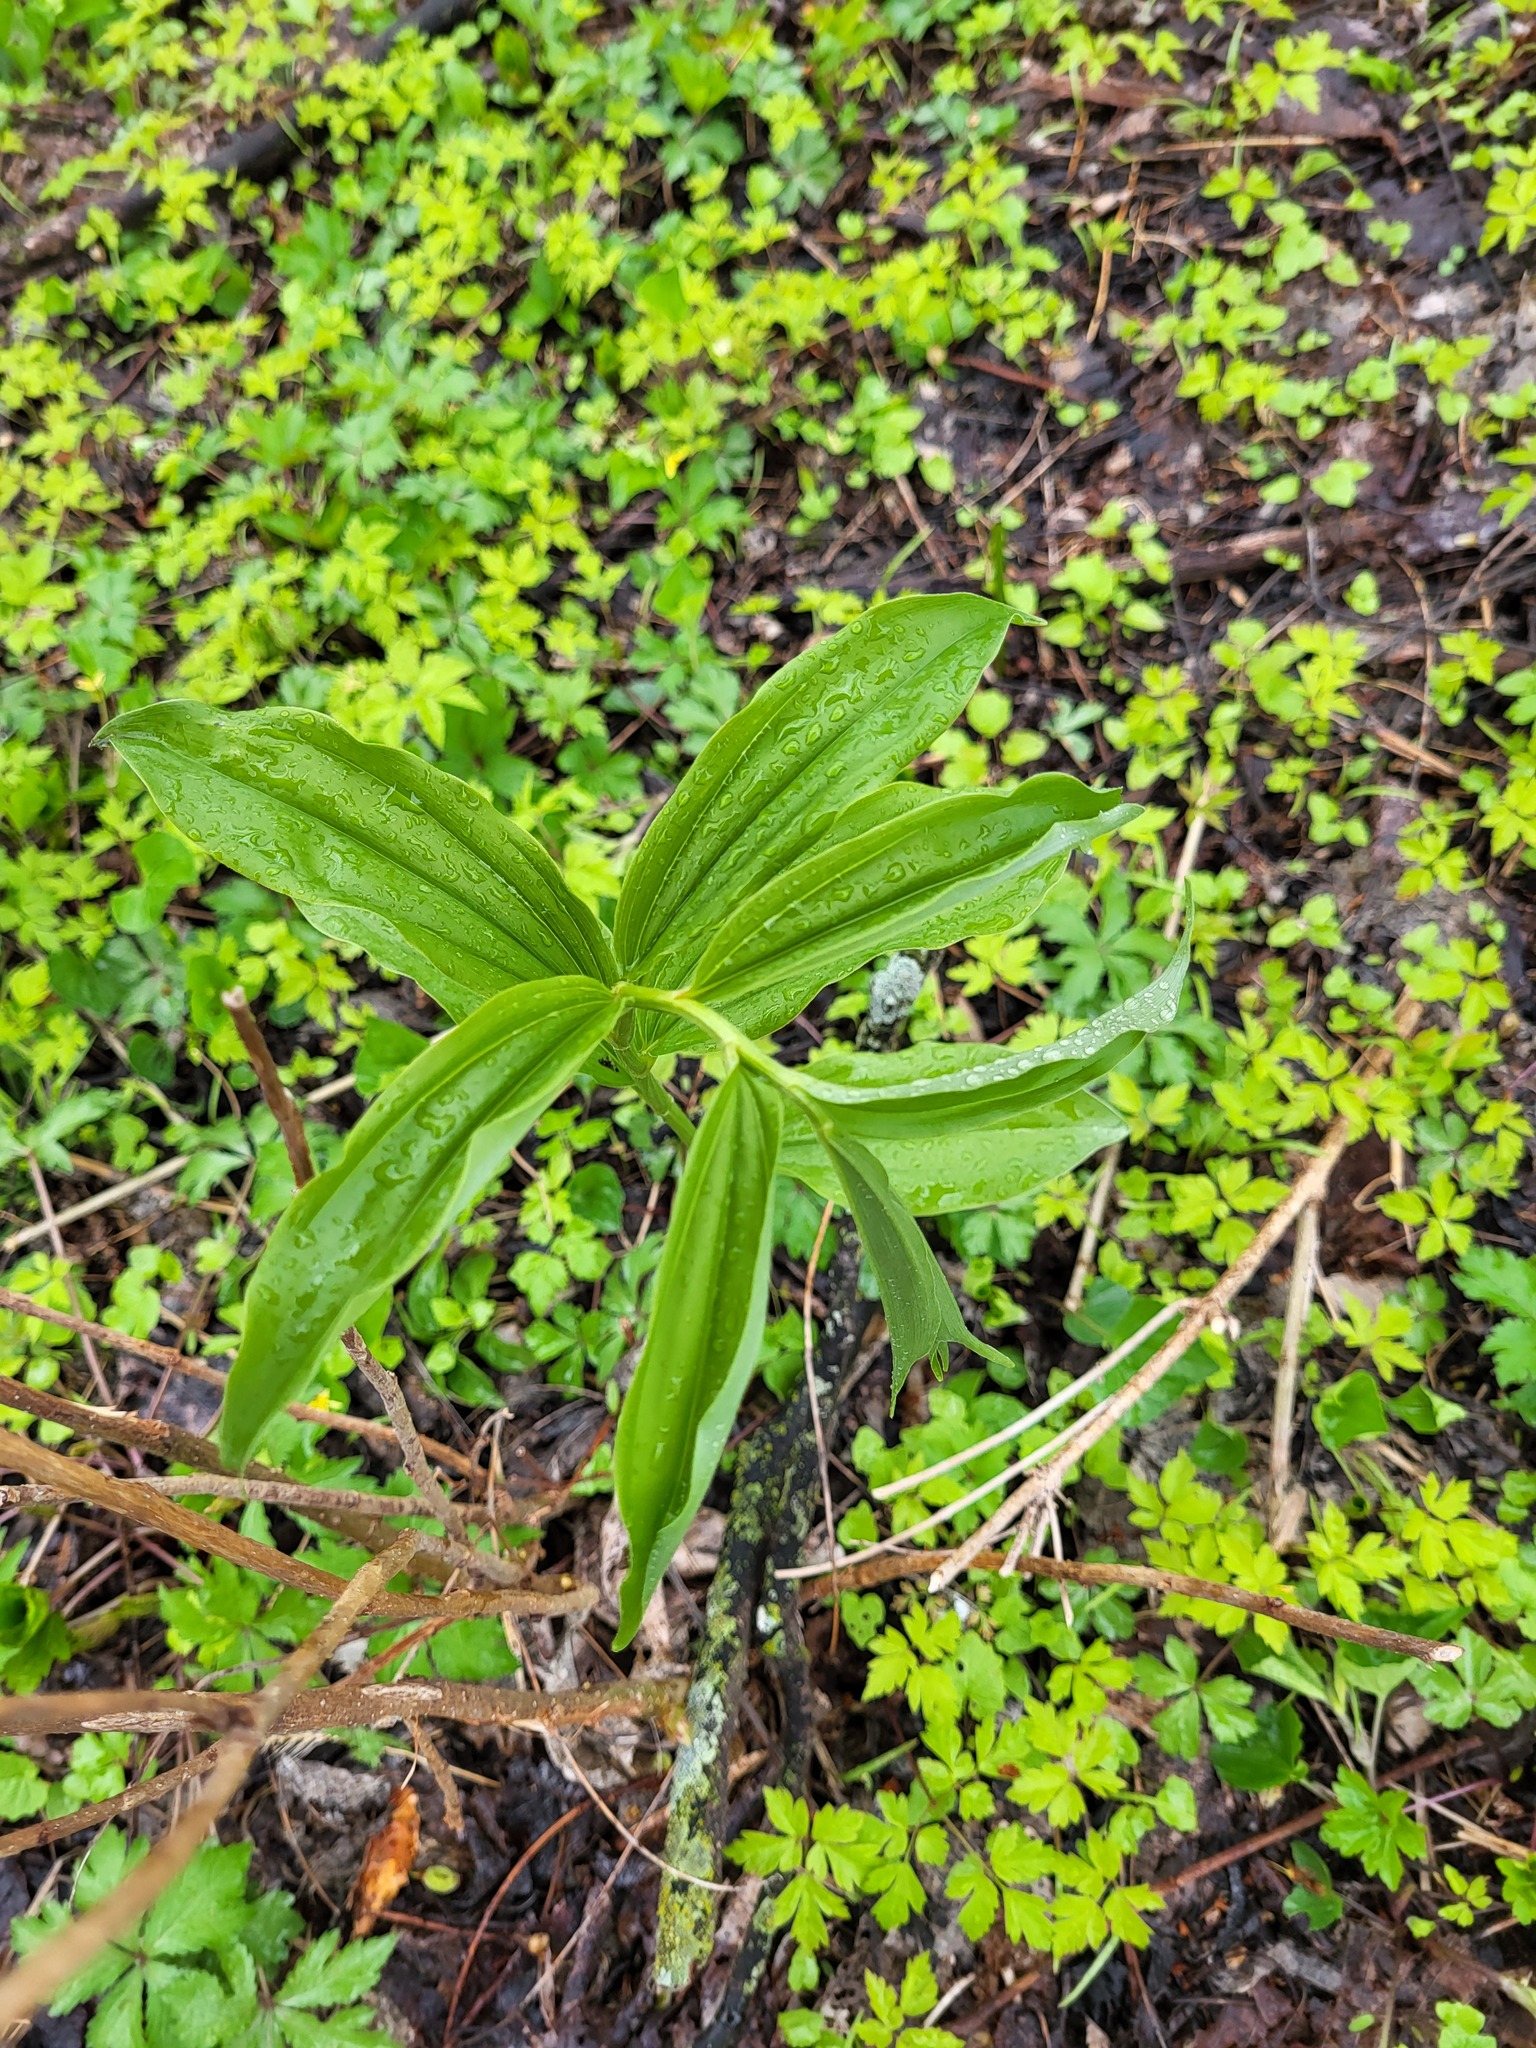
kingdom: Plantae
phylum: Tracheophyta
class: Liliopsida
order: Asparagales
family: Asparagaceae
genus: Maianthemum
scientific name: Maianthemum racemosum
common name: False spikenard
